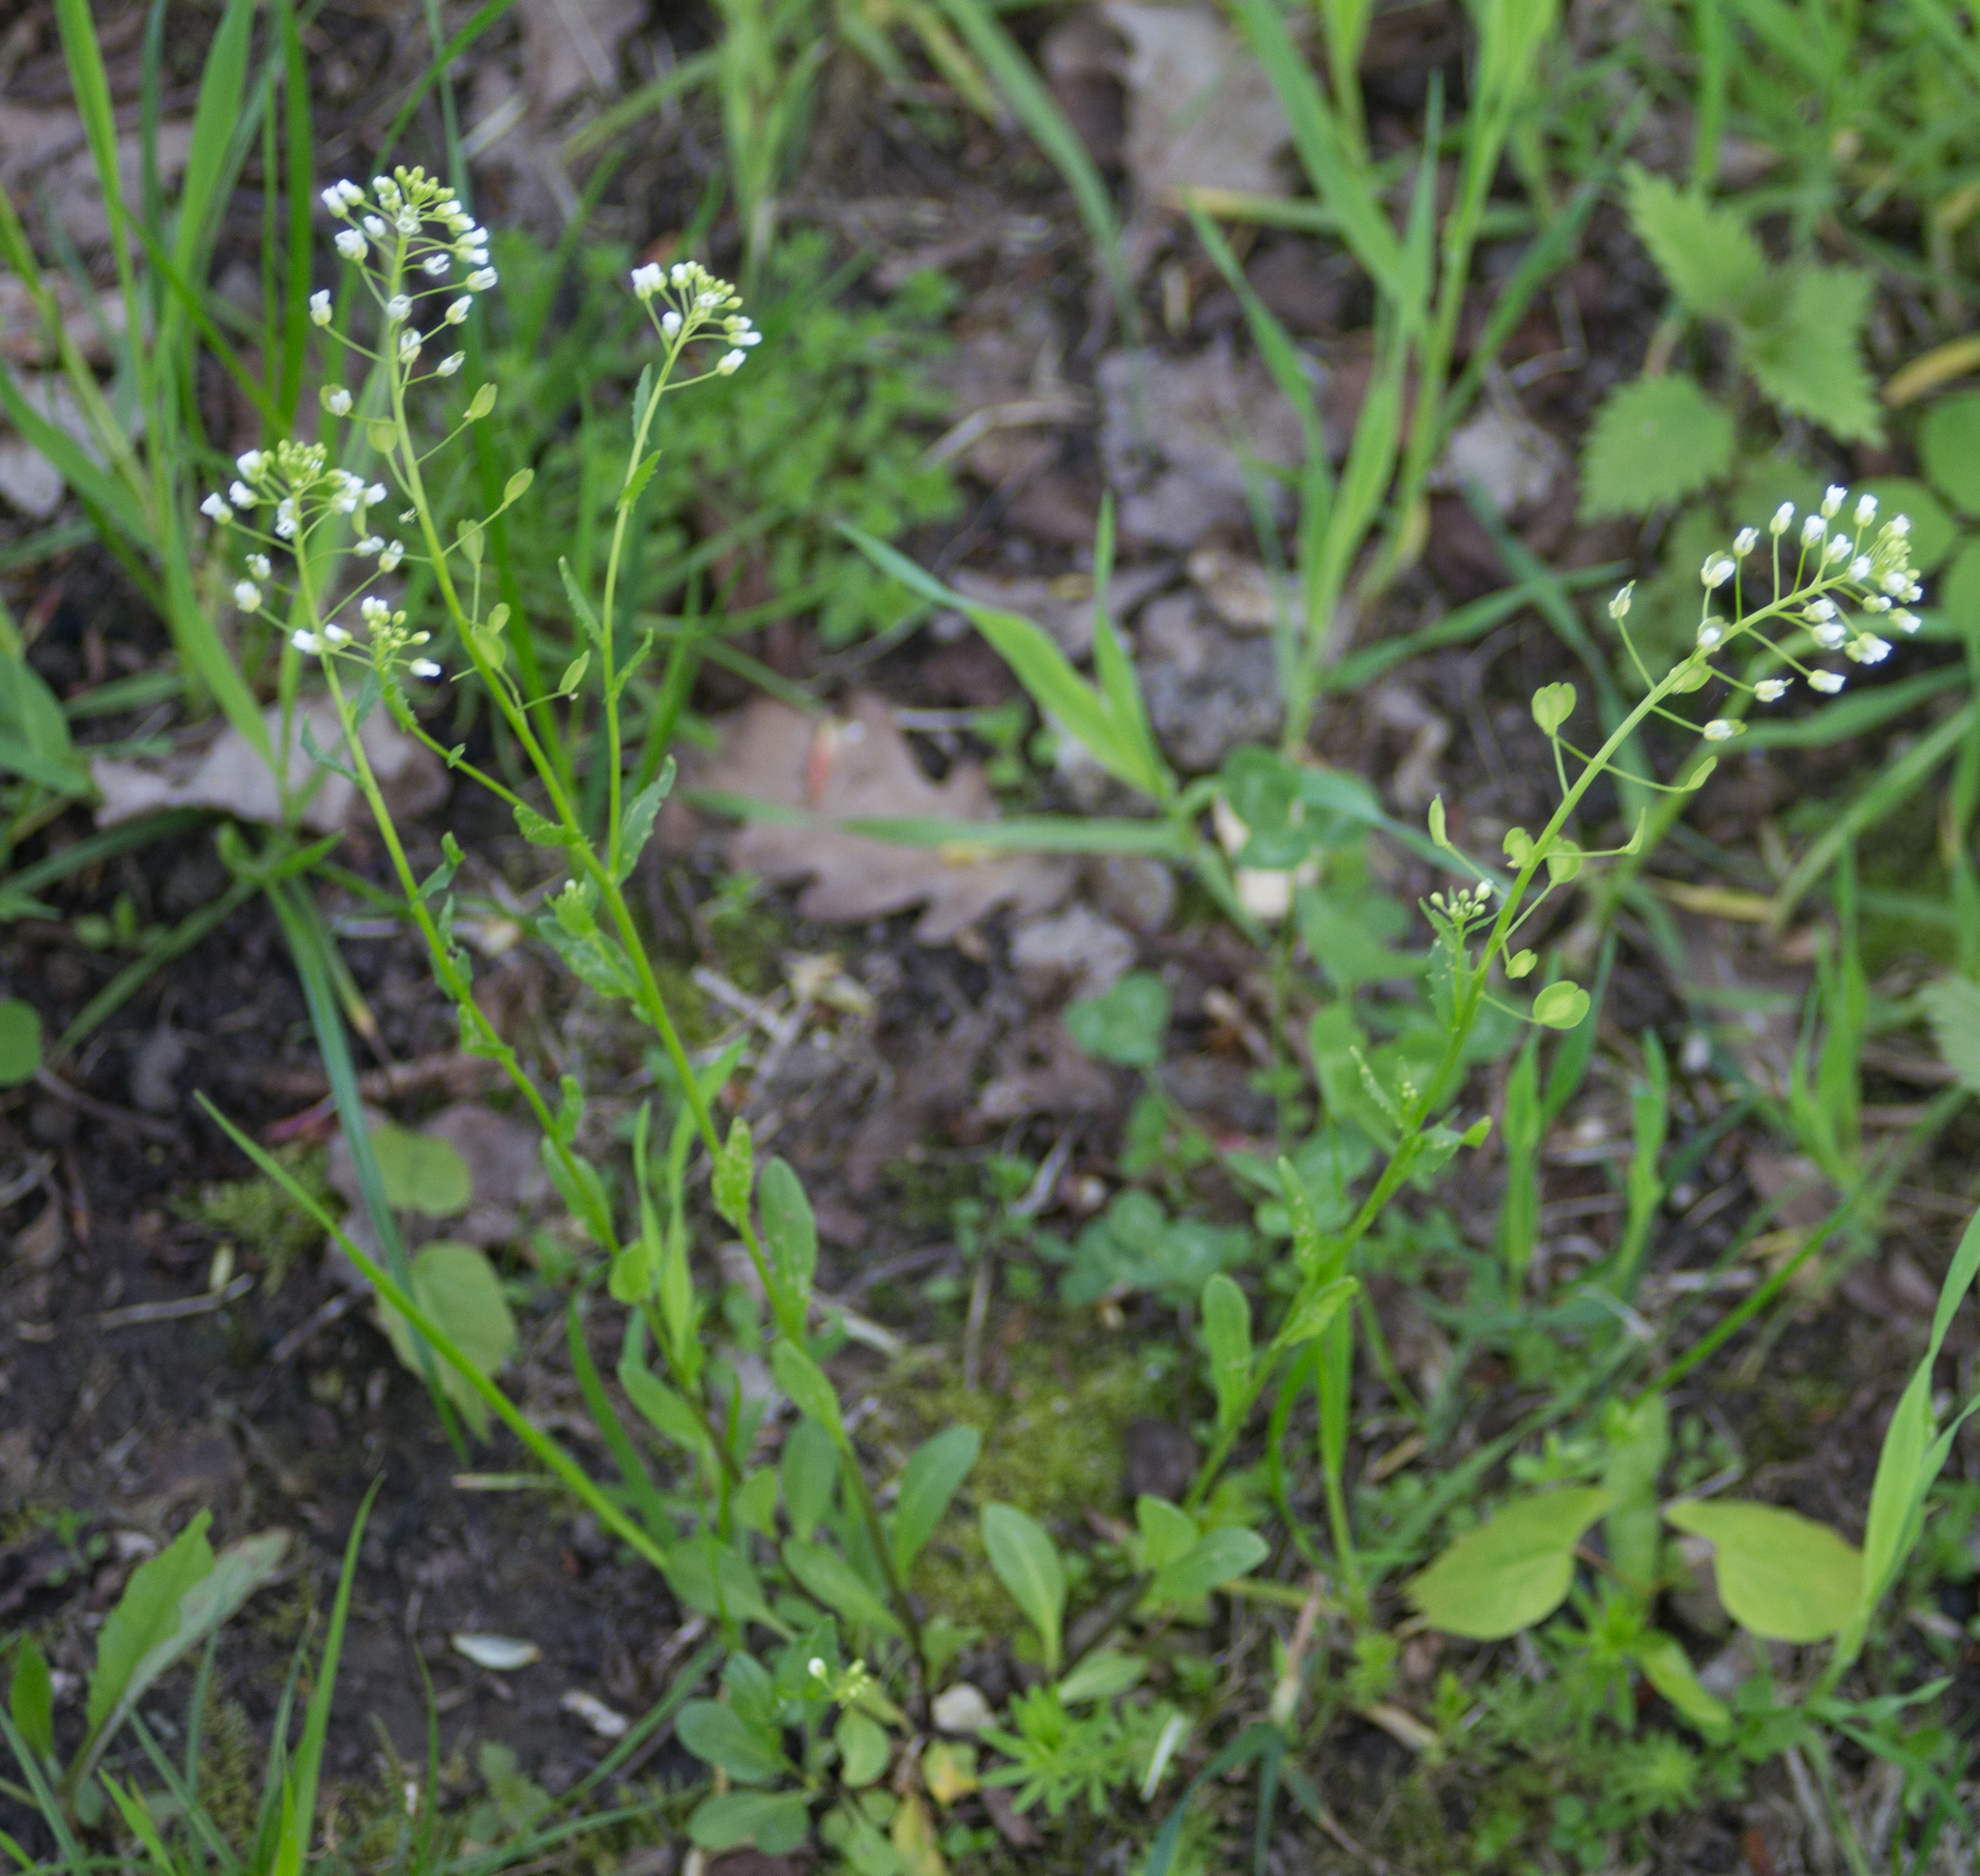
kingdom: Plantae
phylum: Tracheophyta
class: Magnoliopsida
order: Brassicales
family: Brassicaceae
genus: Thlaspi
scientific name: Thlaspi arvense
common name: Field pennycress
